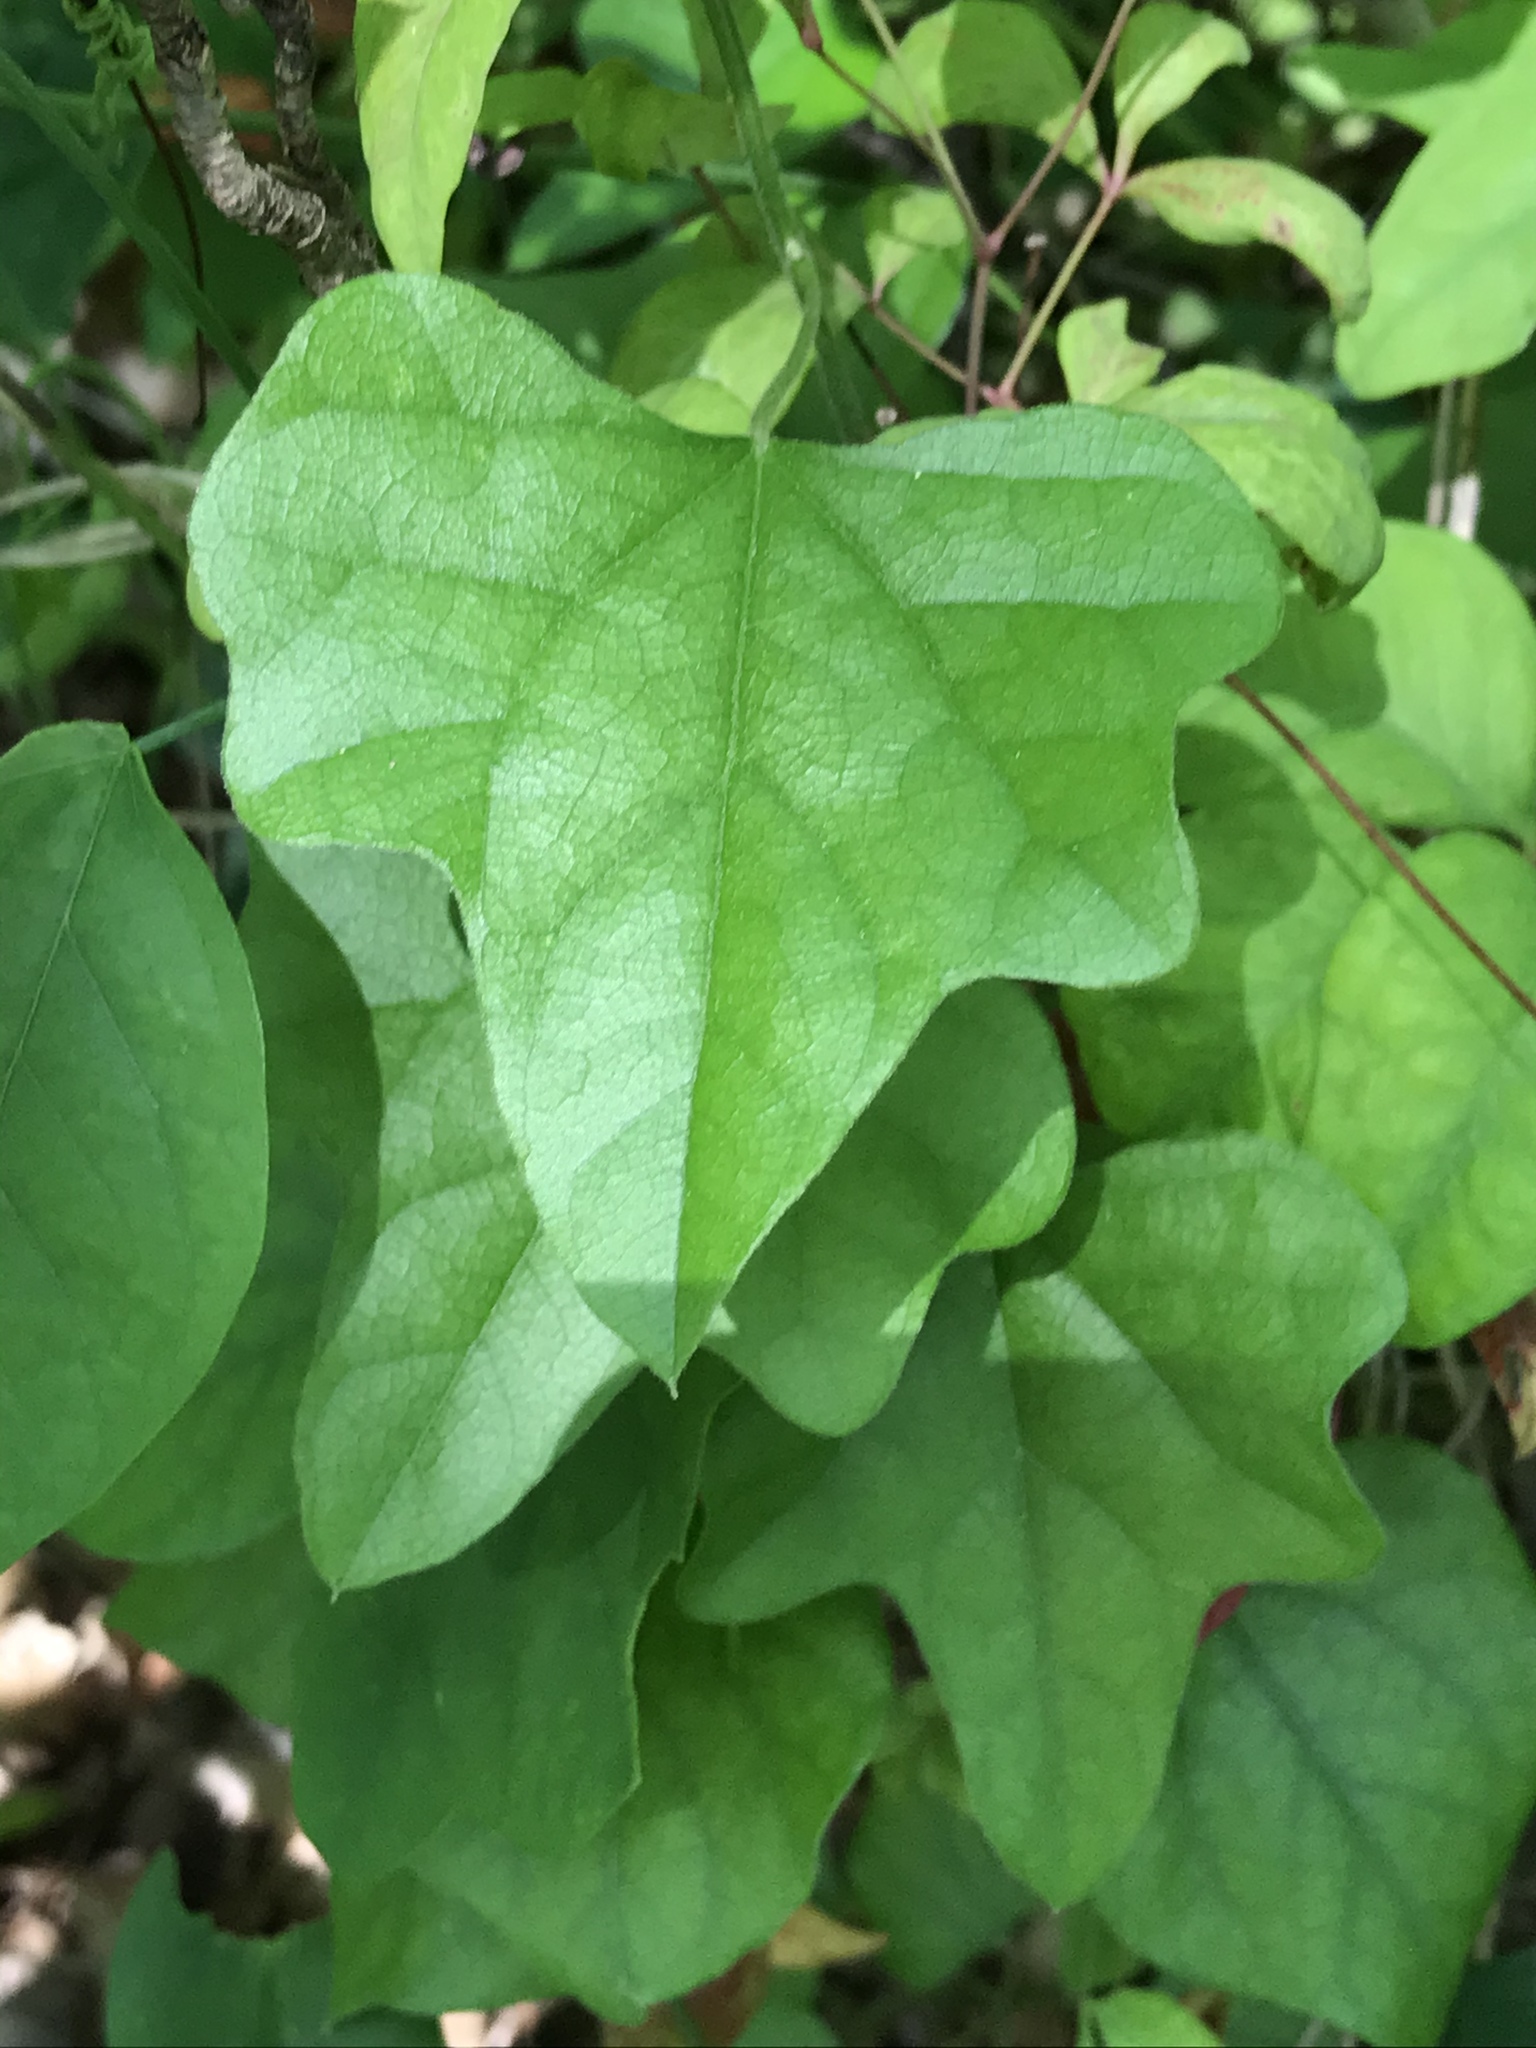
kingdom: Plantae
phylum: Tracheophyta
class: Magnoliopsida
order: Ranunculales
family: Menispermaceae
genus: Cocculus
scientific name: Cocculus carolinus
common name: Carolina moonseed
